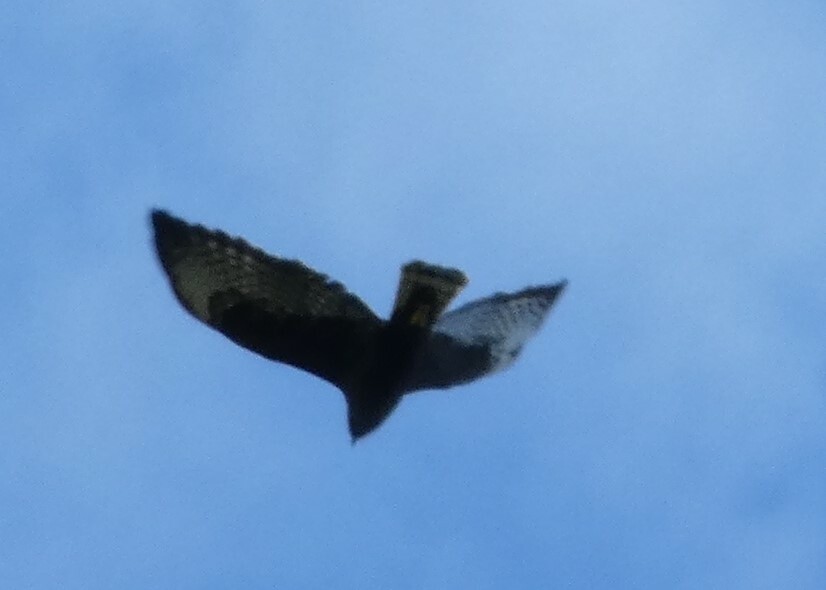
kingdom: Animalia
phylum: Chordata
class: Aves
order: Accipitriformes
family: Accipitridae
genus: Buteo
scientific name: Buteo brachyurus
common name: Short-tailed hawk
